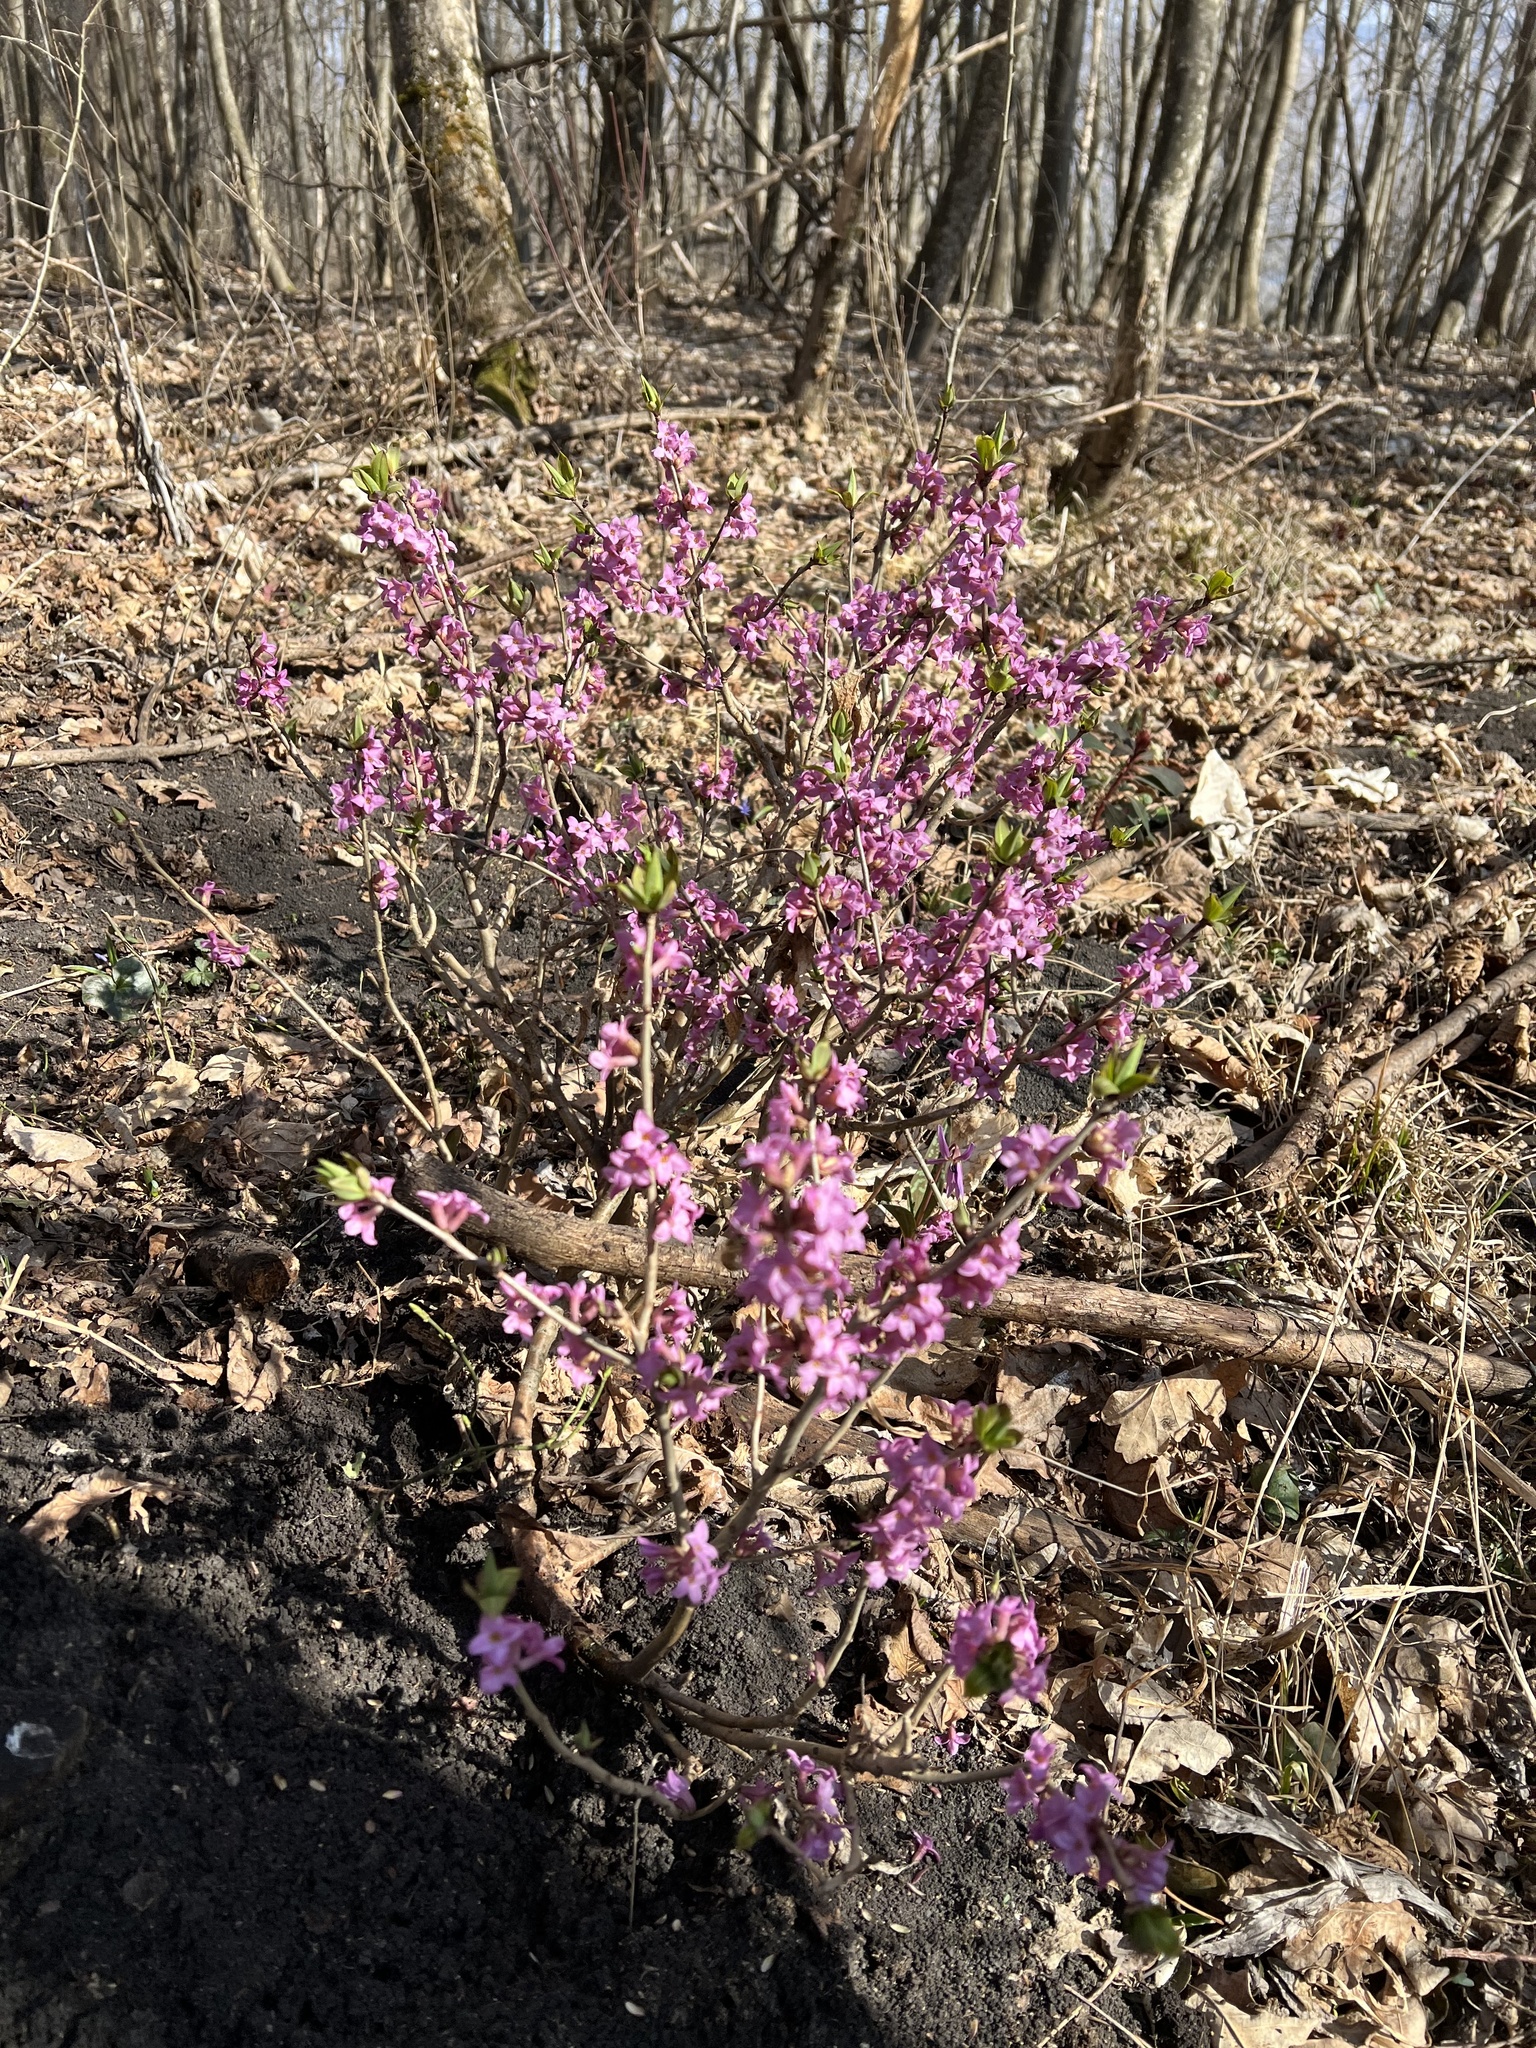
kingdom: Plantae
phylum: Tracheophyta
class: Magnoliopsida
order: Malvales
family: Thymelaeaceae
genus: Daphne
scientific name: Daphne mezereum
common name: Mezereon
